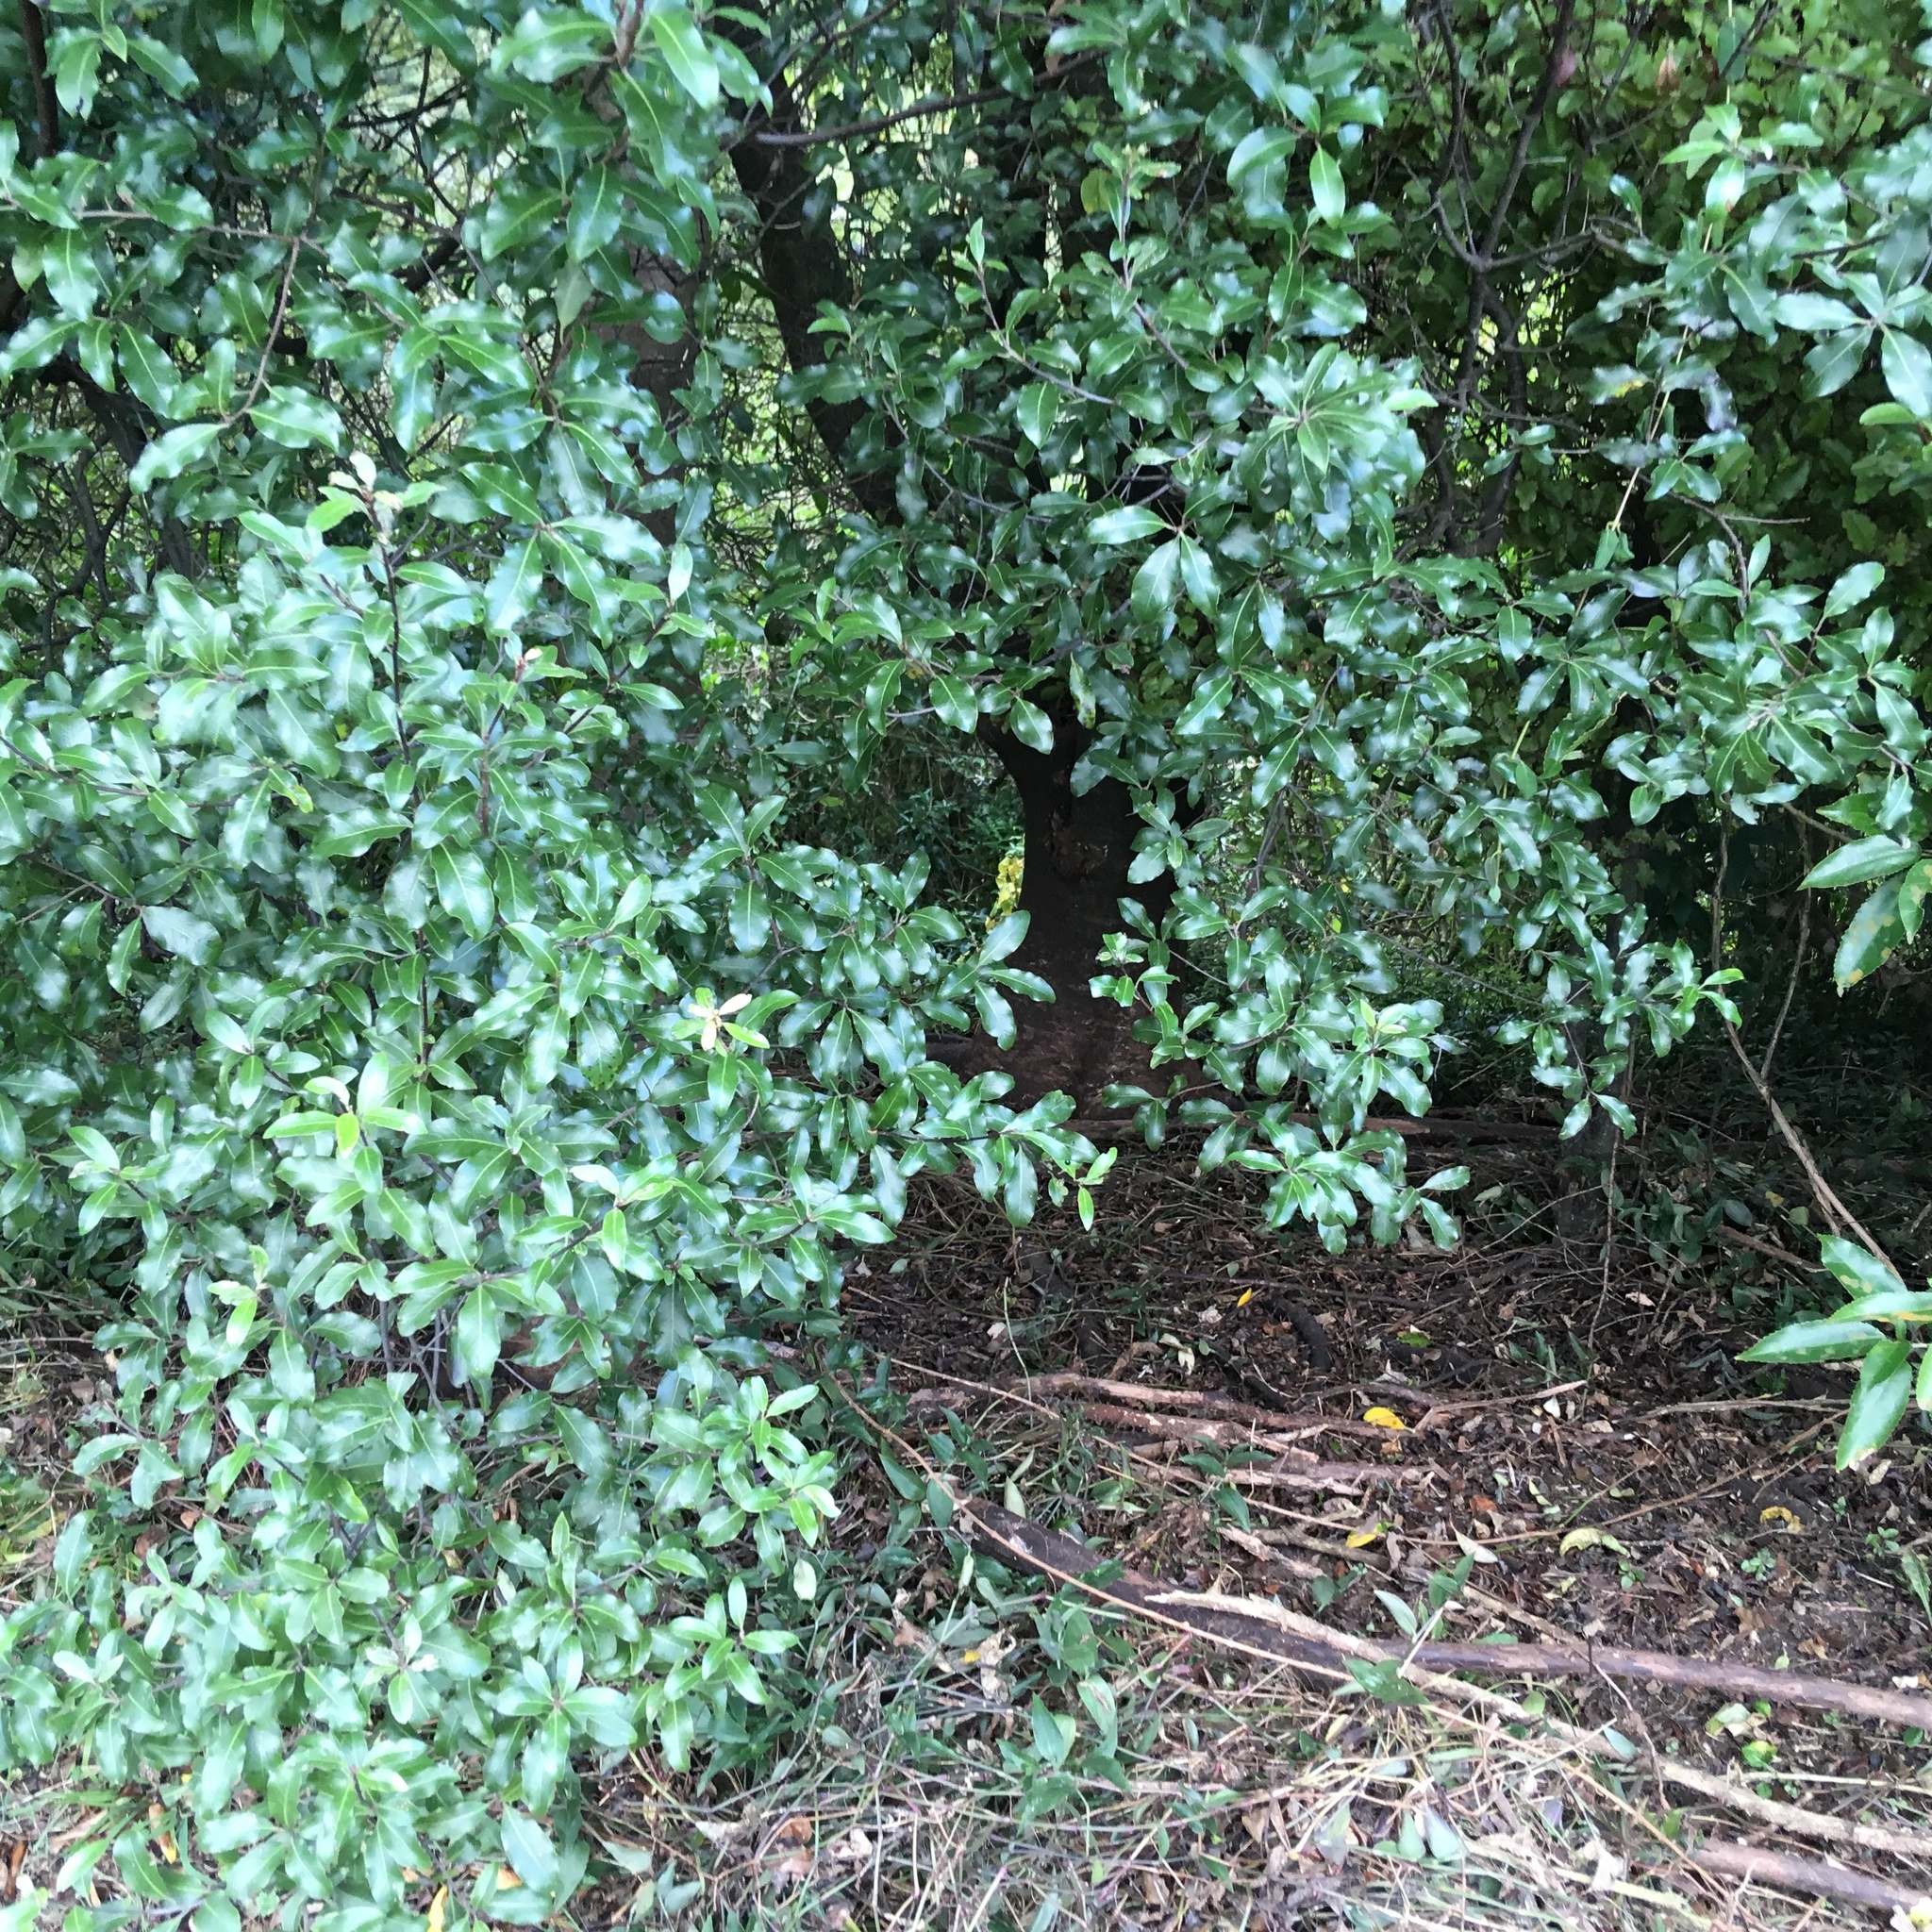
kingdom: Plantae
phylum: Tracheophyta
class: Magnoliopsida
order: Apiales
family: Pittosporaceae
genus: Pittosporum
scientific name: Pittosporum tenuifolium
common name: Kohuhu
